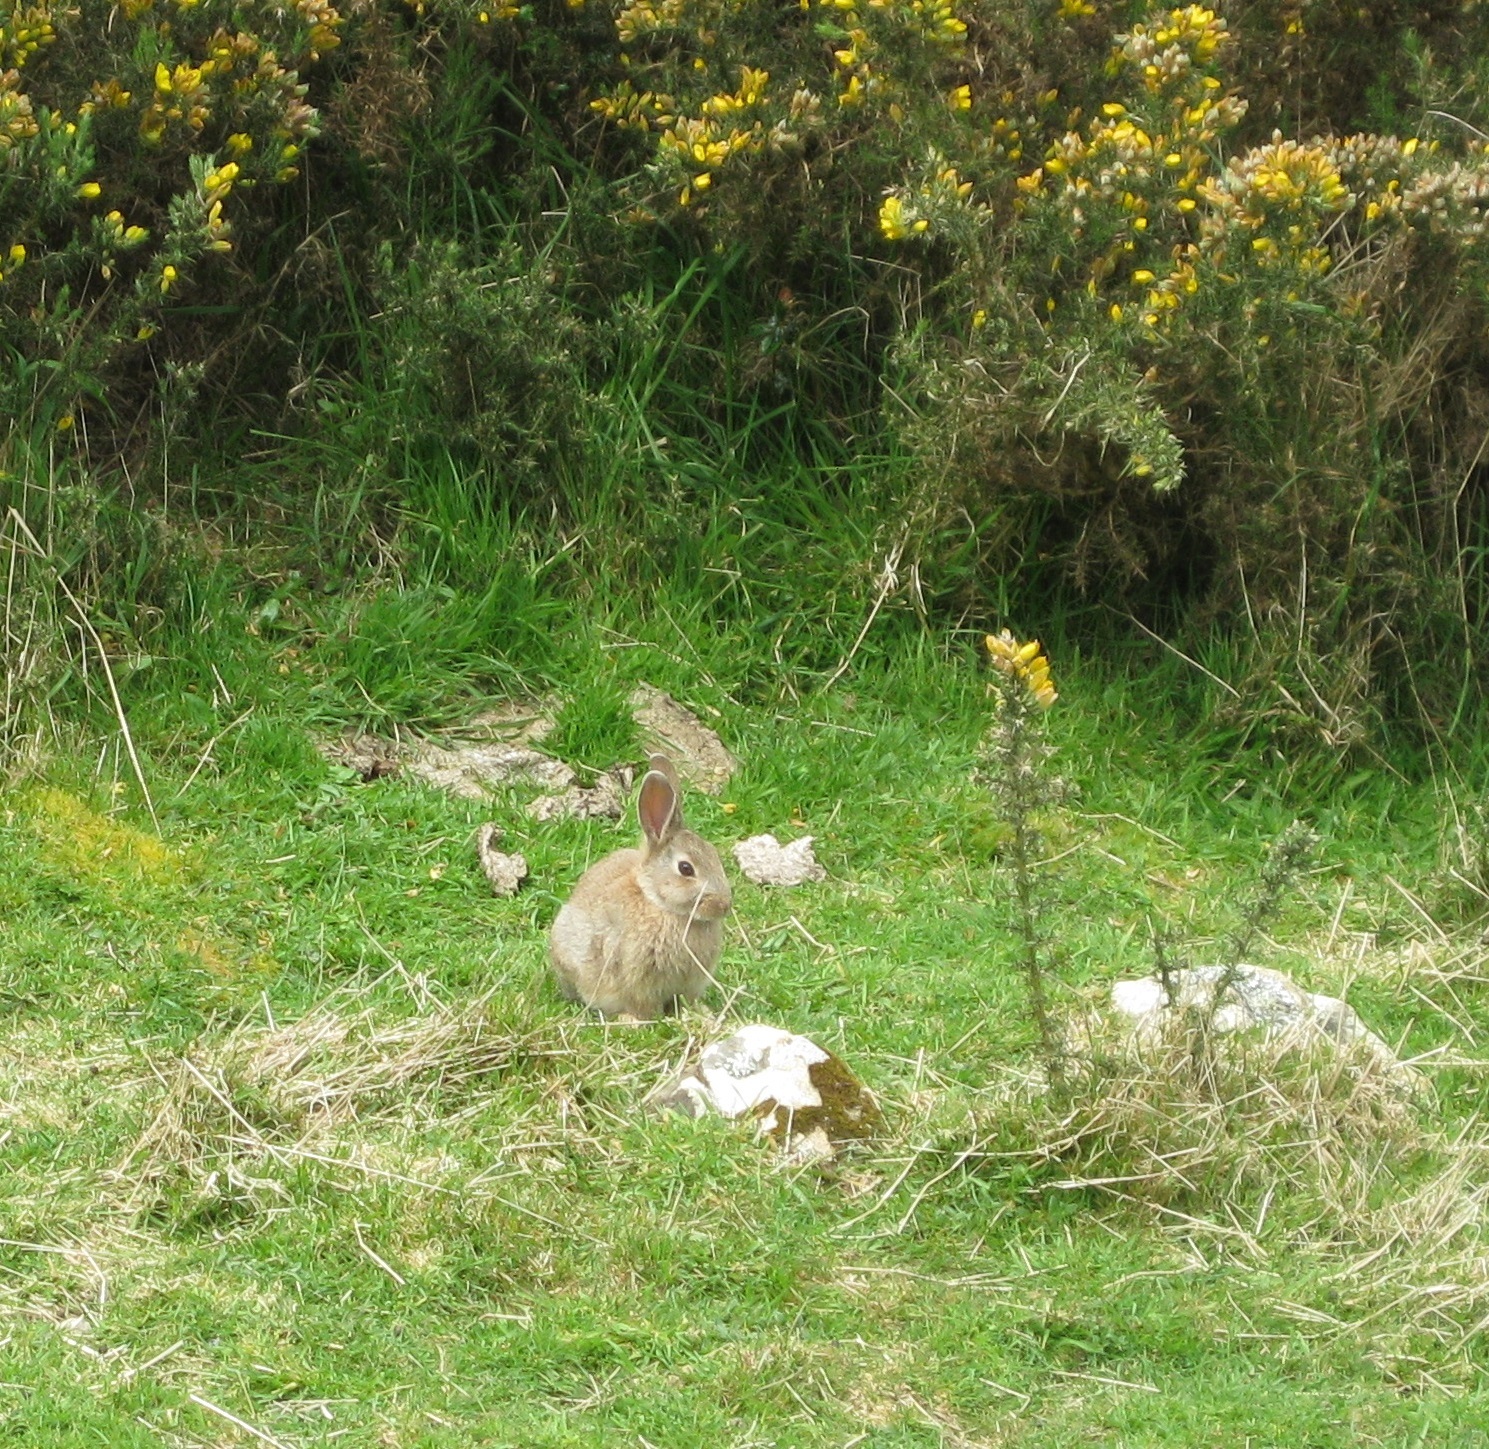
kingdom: Animalia
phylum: Chordata
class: Mammalia
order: Lagomorpha
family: Leporidae
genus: Oryctolagus
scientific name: Oryctolagus cuniculus
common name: European rabbit
